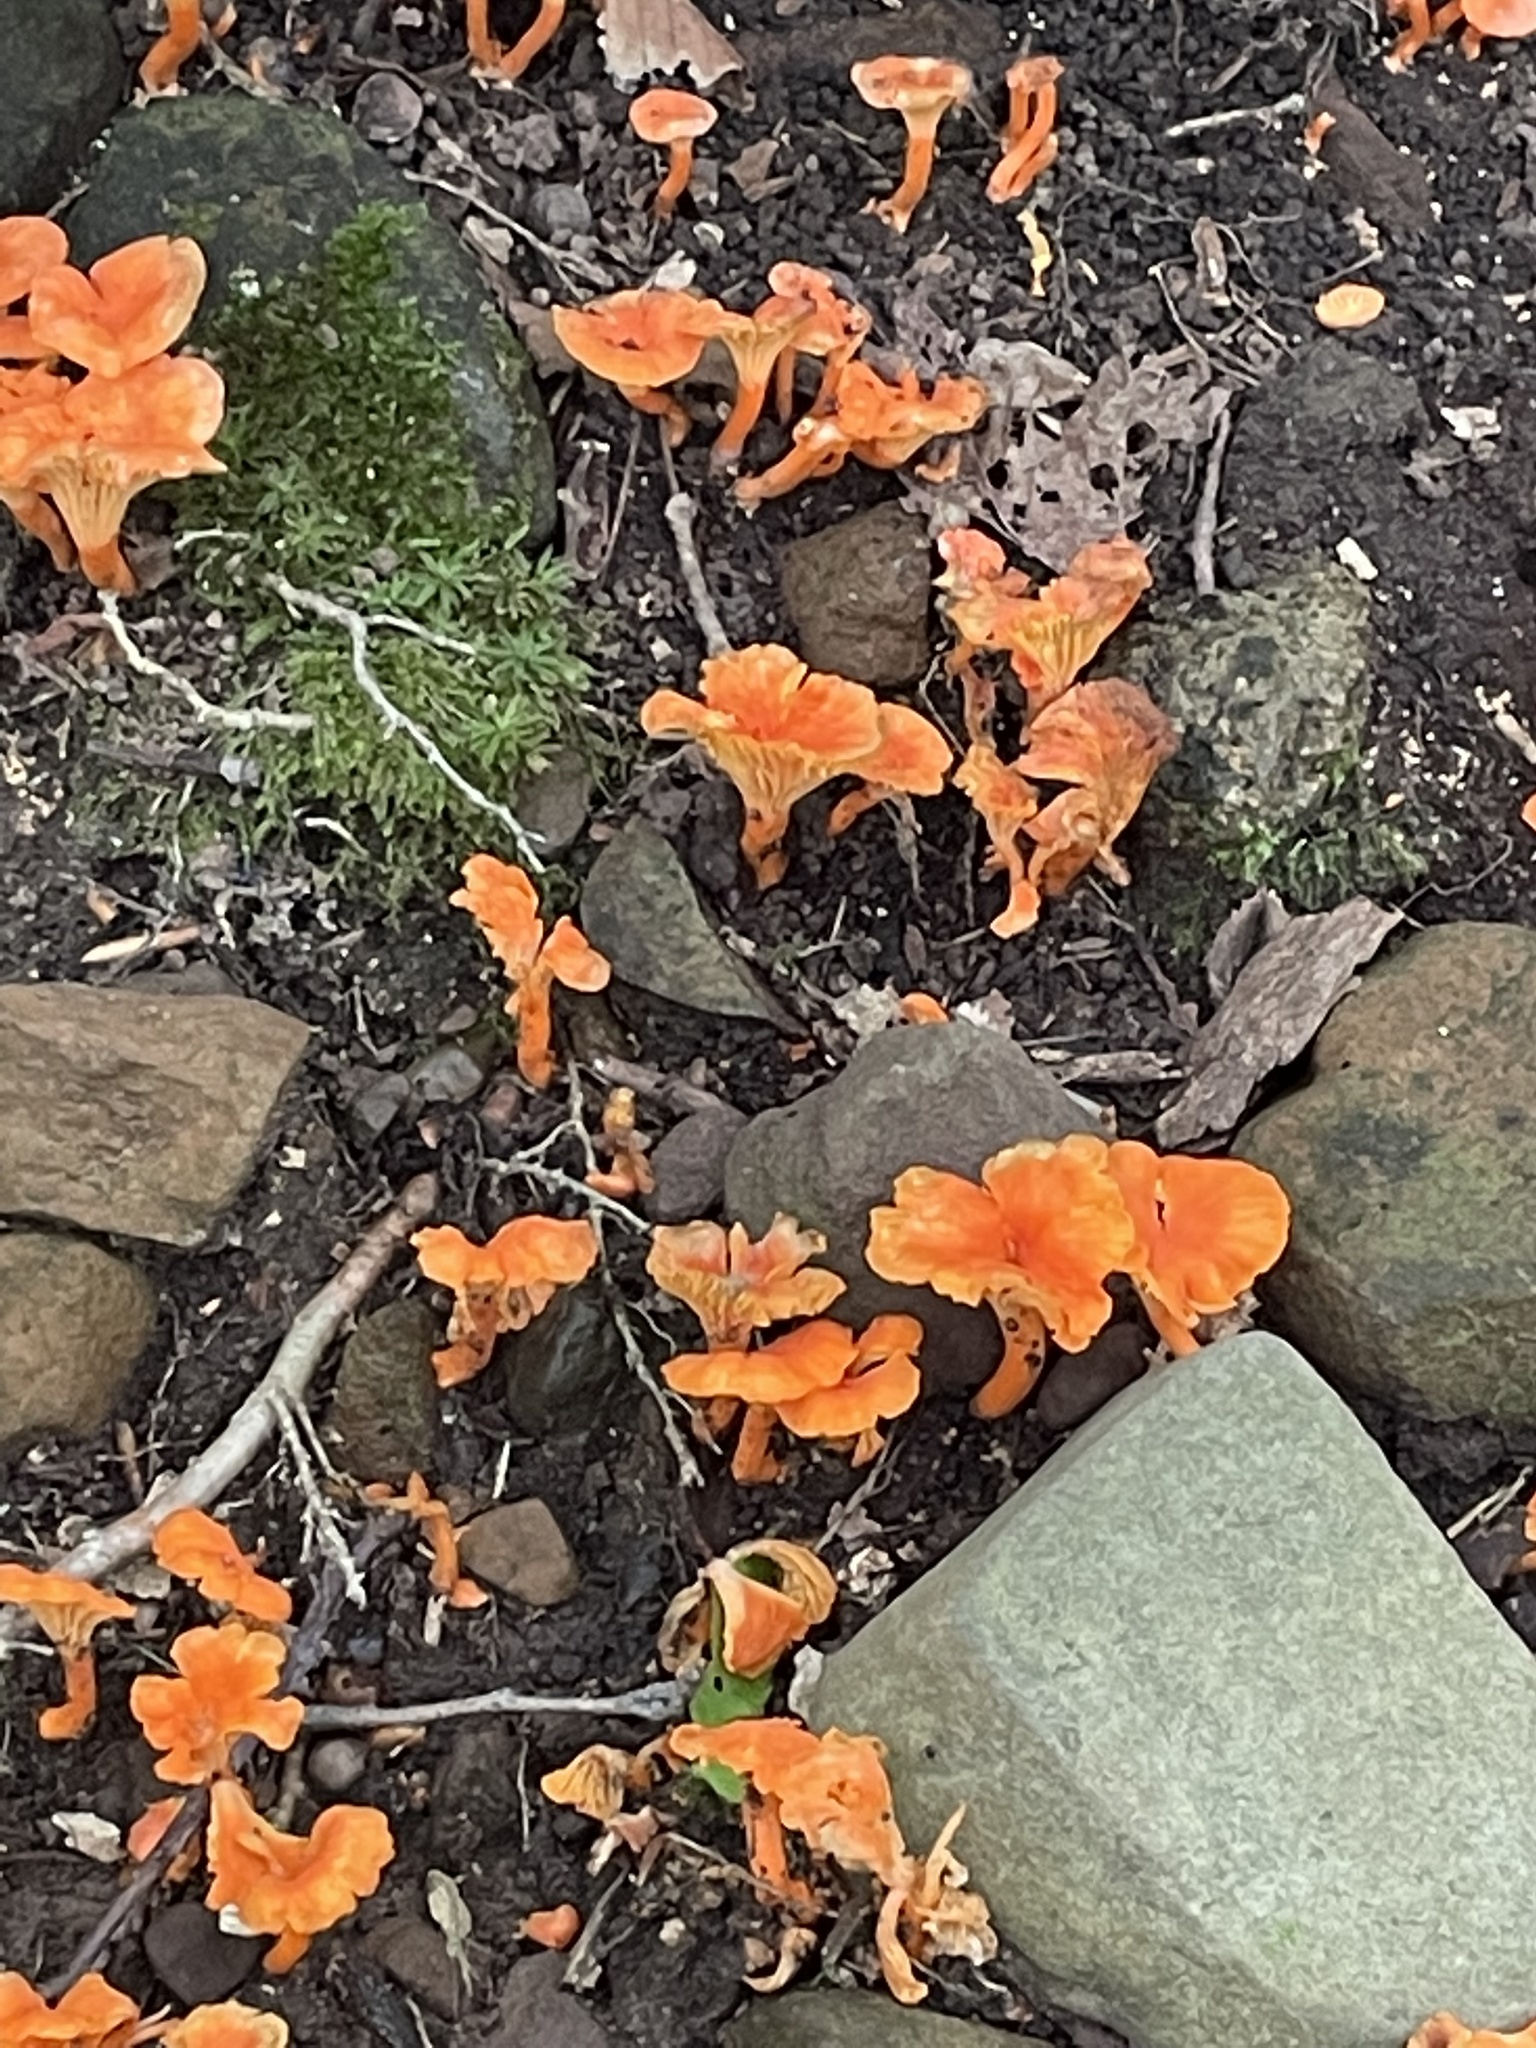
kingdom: Fungi
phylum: Basidiomycota
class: Agaricomycetes
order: Cantharellales
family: Hydnaceae
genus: Cantharellus
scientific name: Cantharellus cinnabarinus
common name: Cinnabar chanterelle
